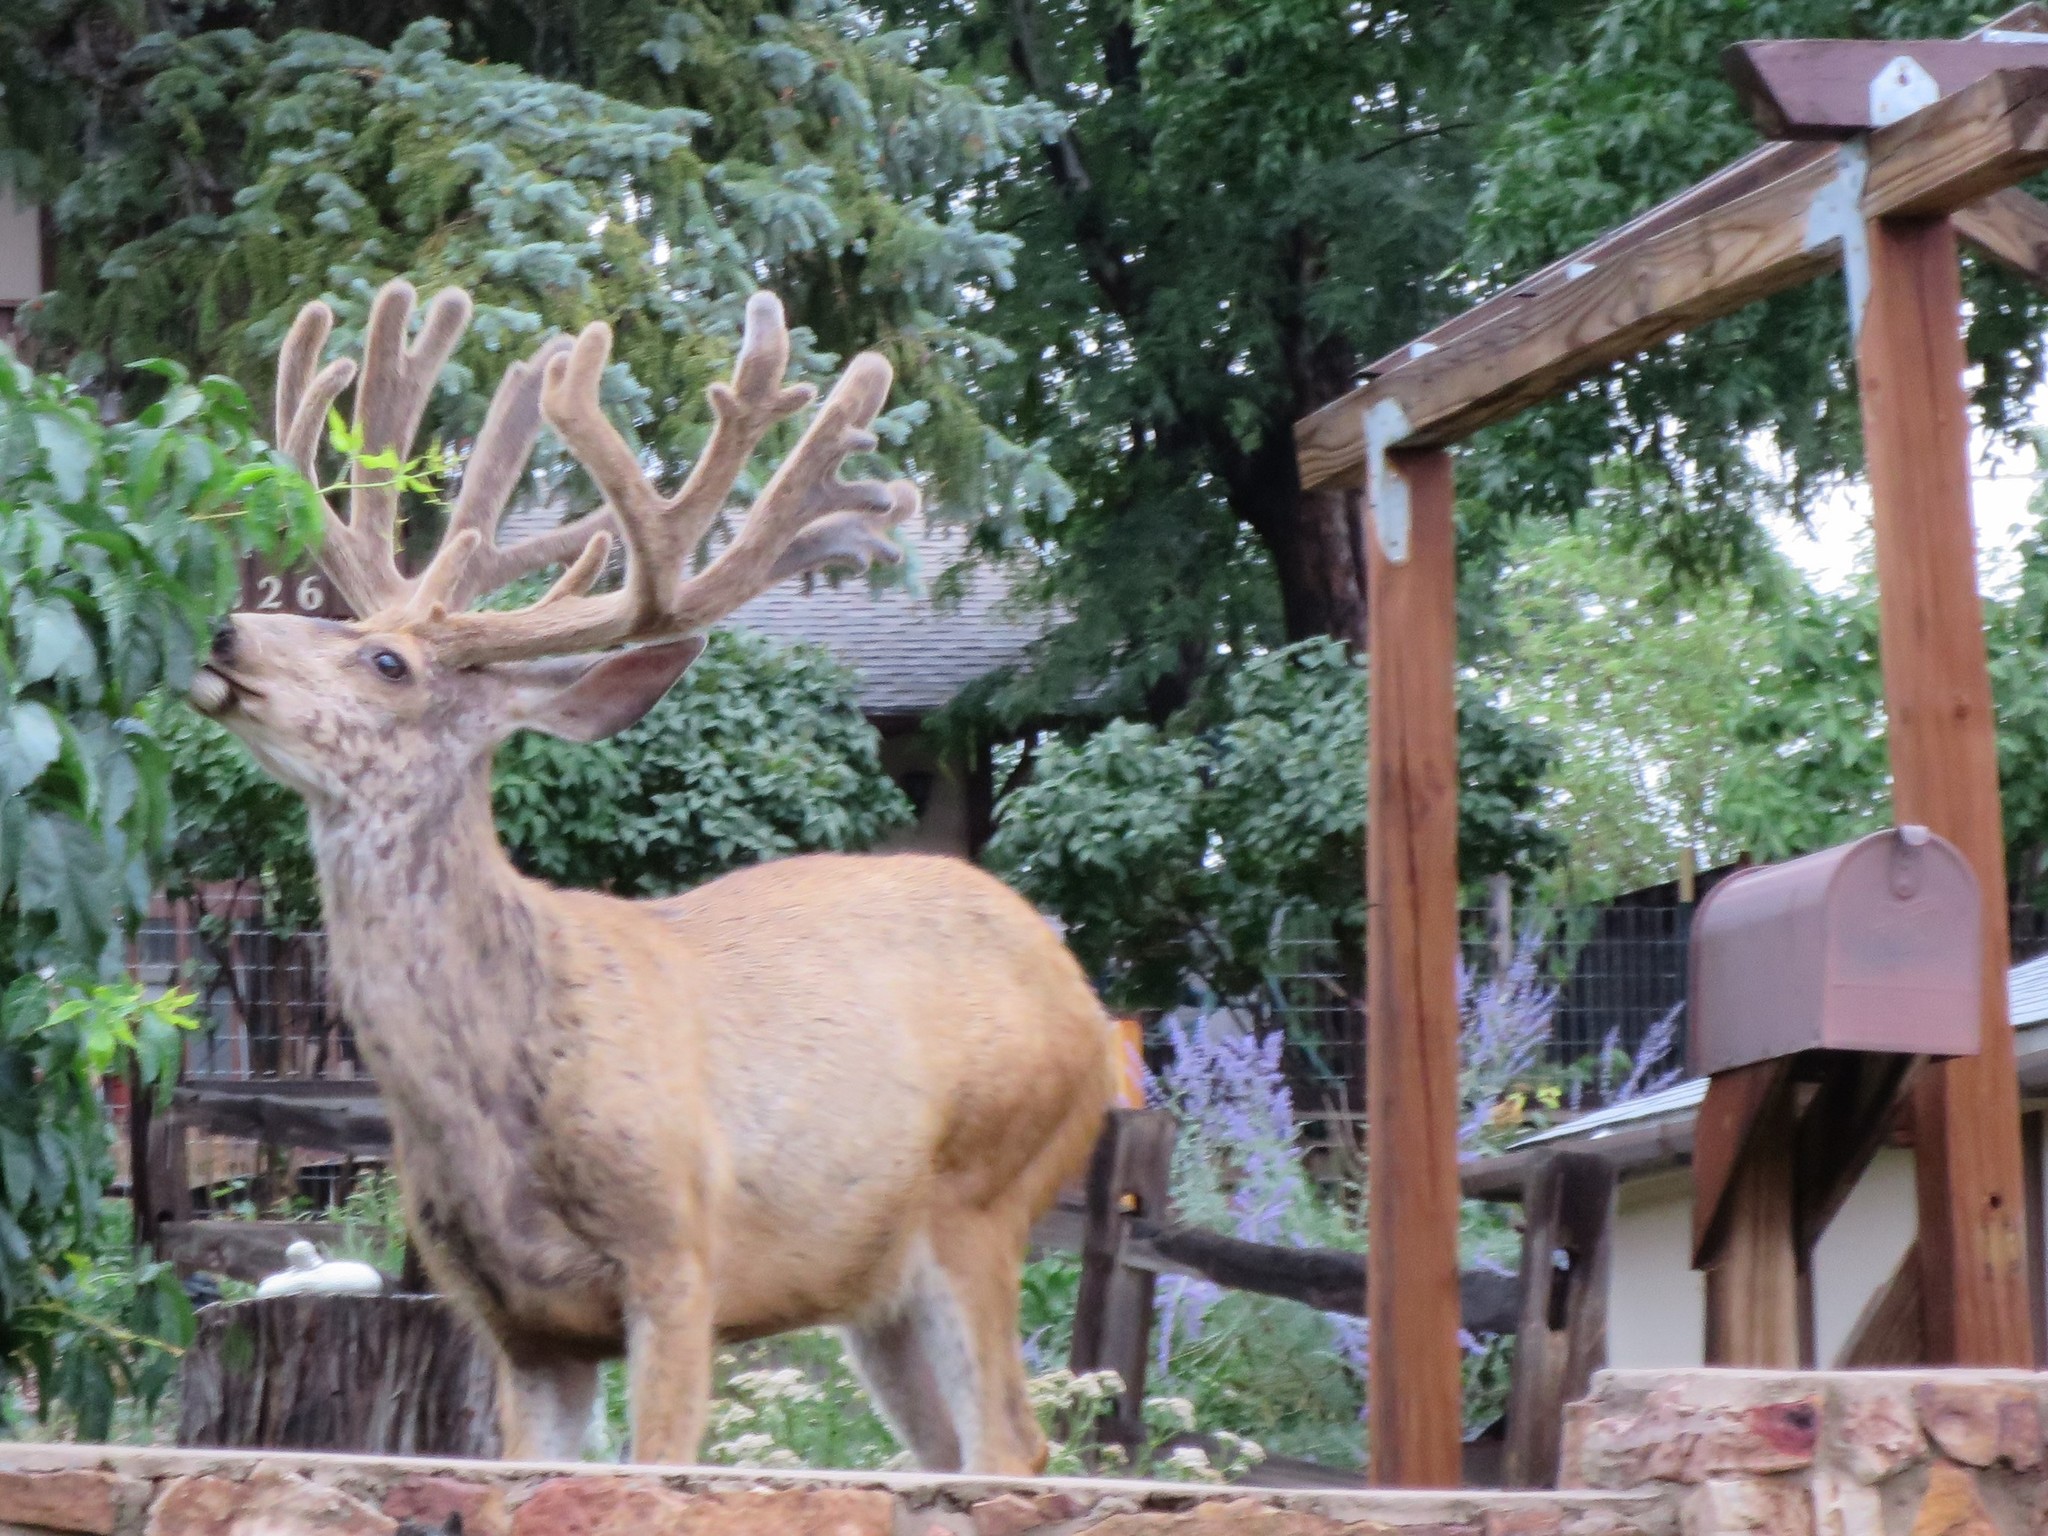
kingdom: Animalia
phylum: Chordata
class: Mammalia
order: Artiodactyla
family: Cervidae
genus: Odocoileus
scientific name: Odocoileus hemionus
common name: Mule deer
